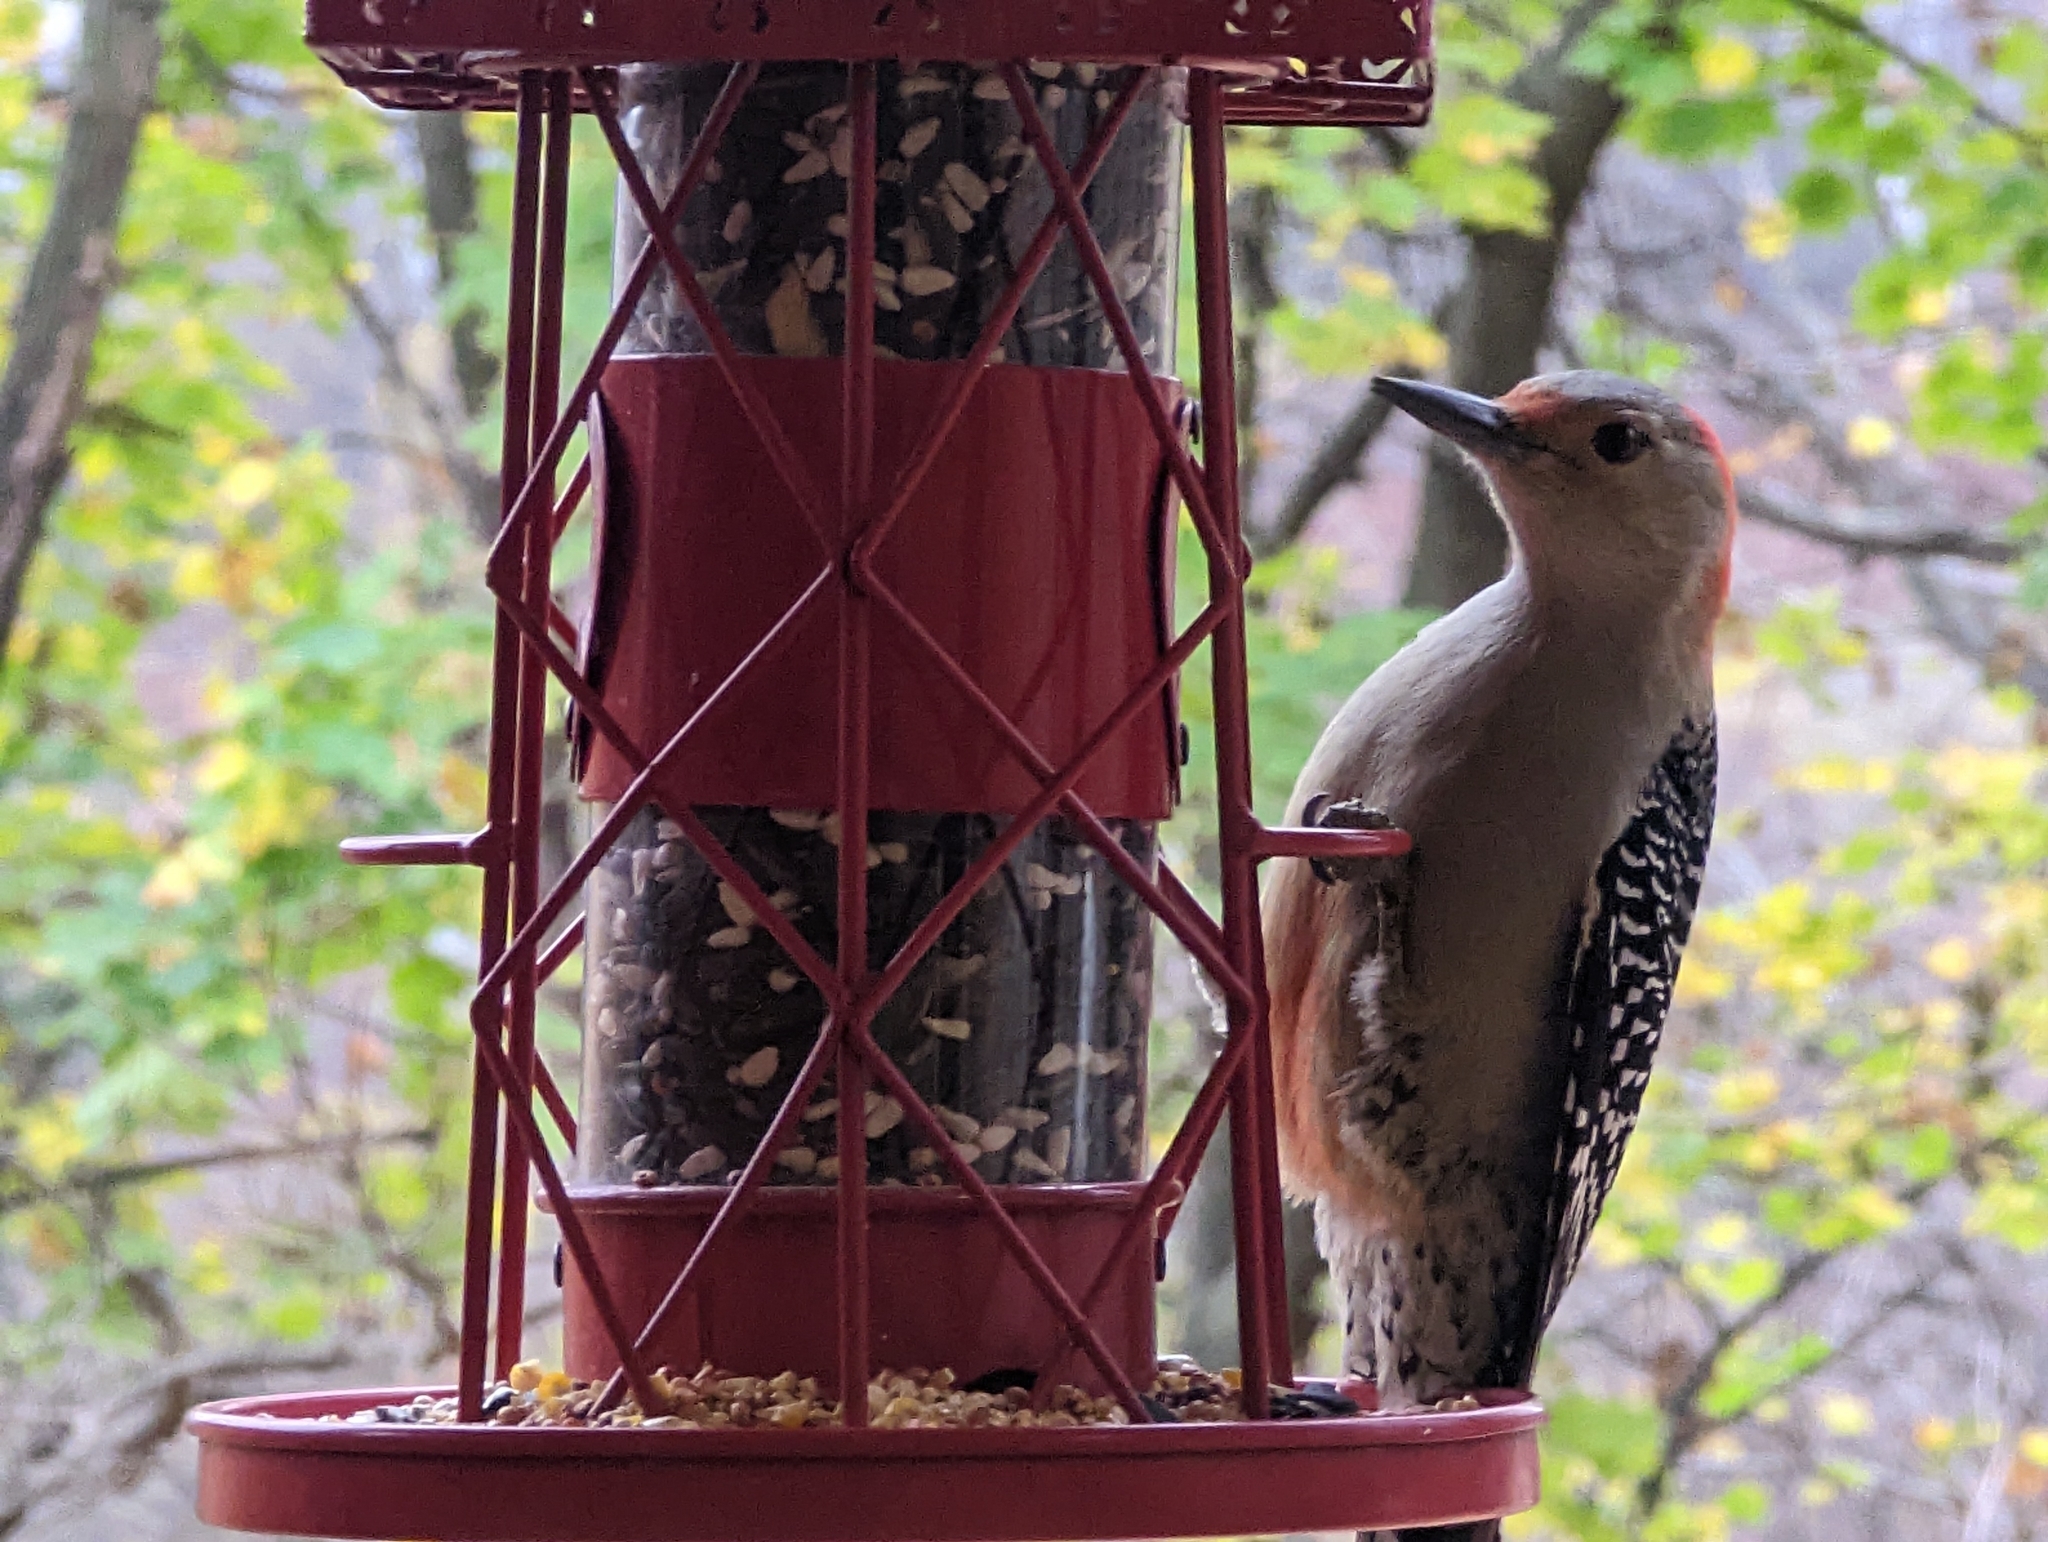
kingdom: Animalia
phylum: Chordata
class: Aves
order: Piciformes
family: Picidae
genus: Melanerpes
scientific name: Melanerpes carolinus
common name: Red-bellied woodpecker
